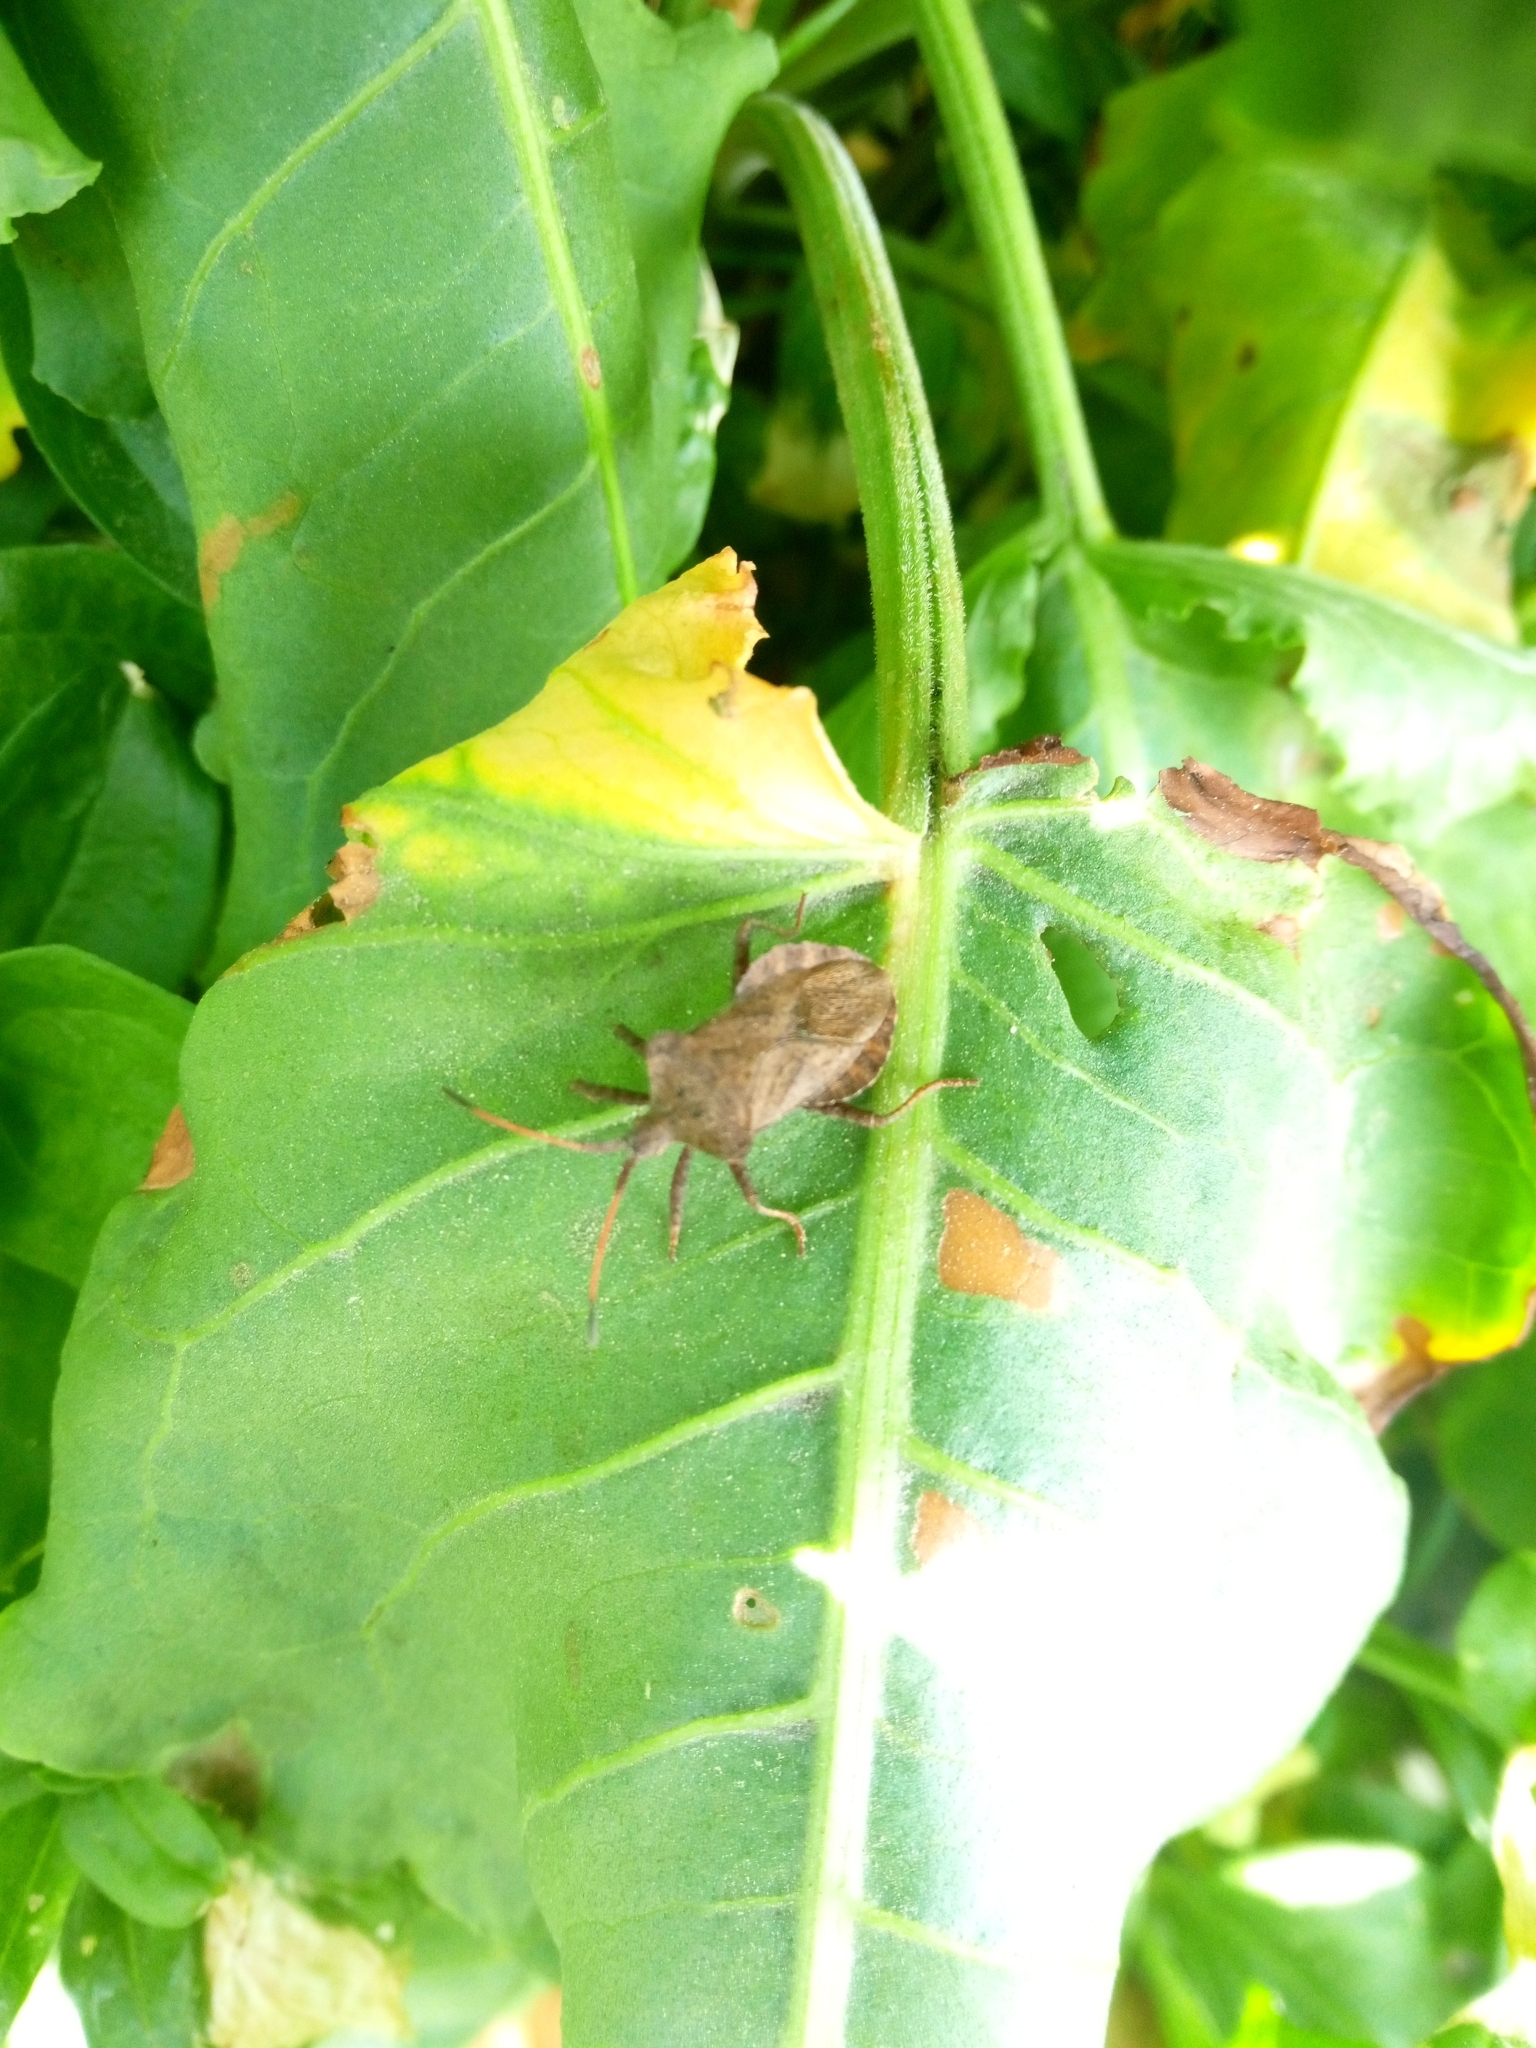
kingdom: Animalia
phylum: Arthropoda
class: Insecta
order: Hemiptera
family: Coreidae
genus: Coreus
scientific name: Coreus marginatus
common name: Dock bug
